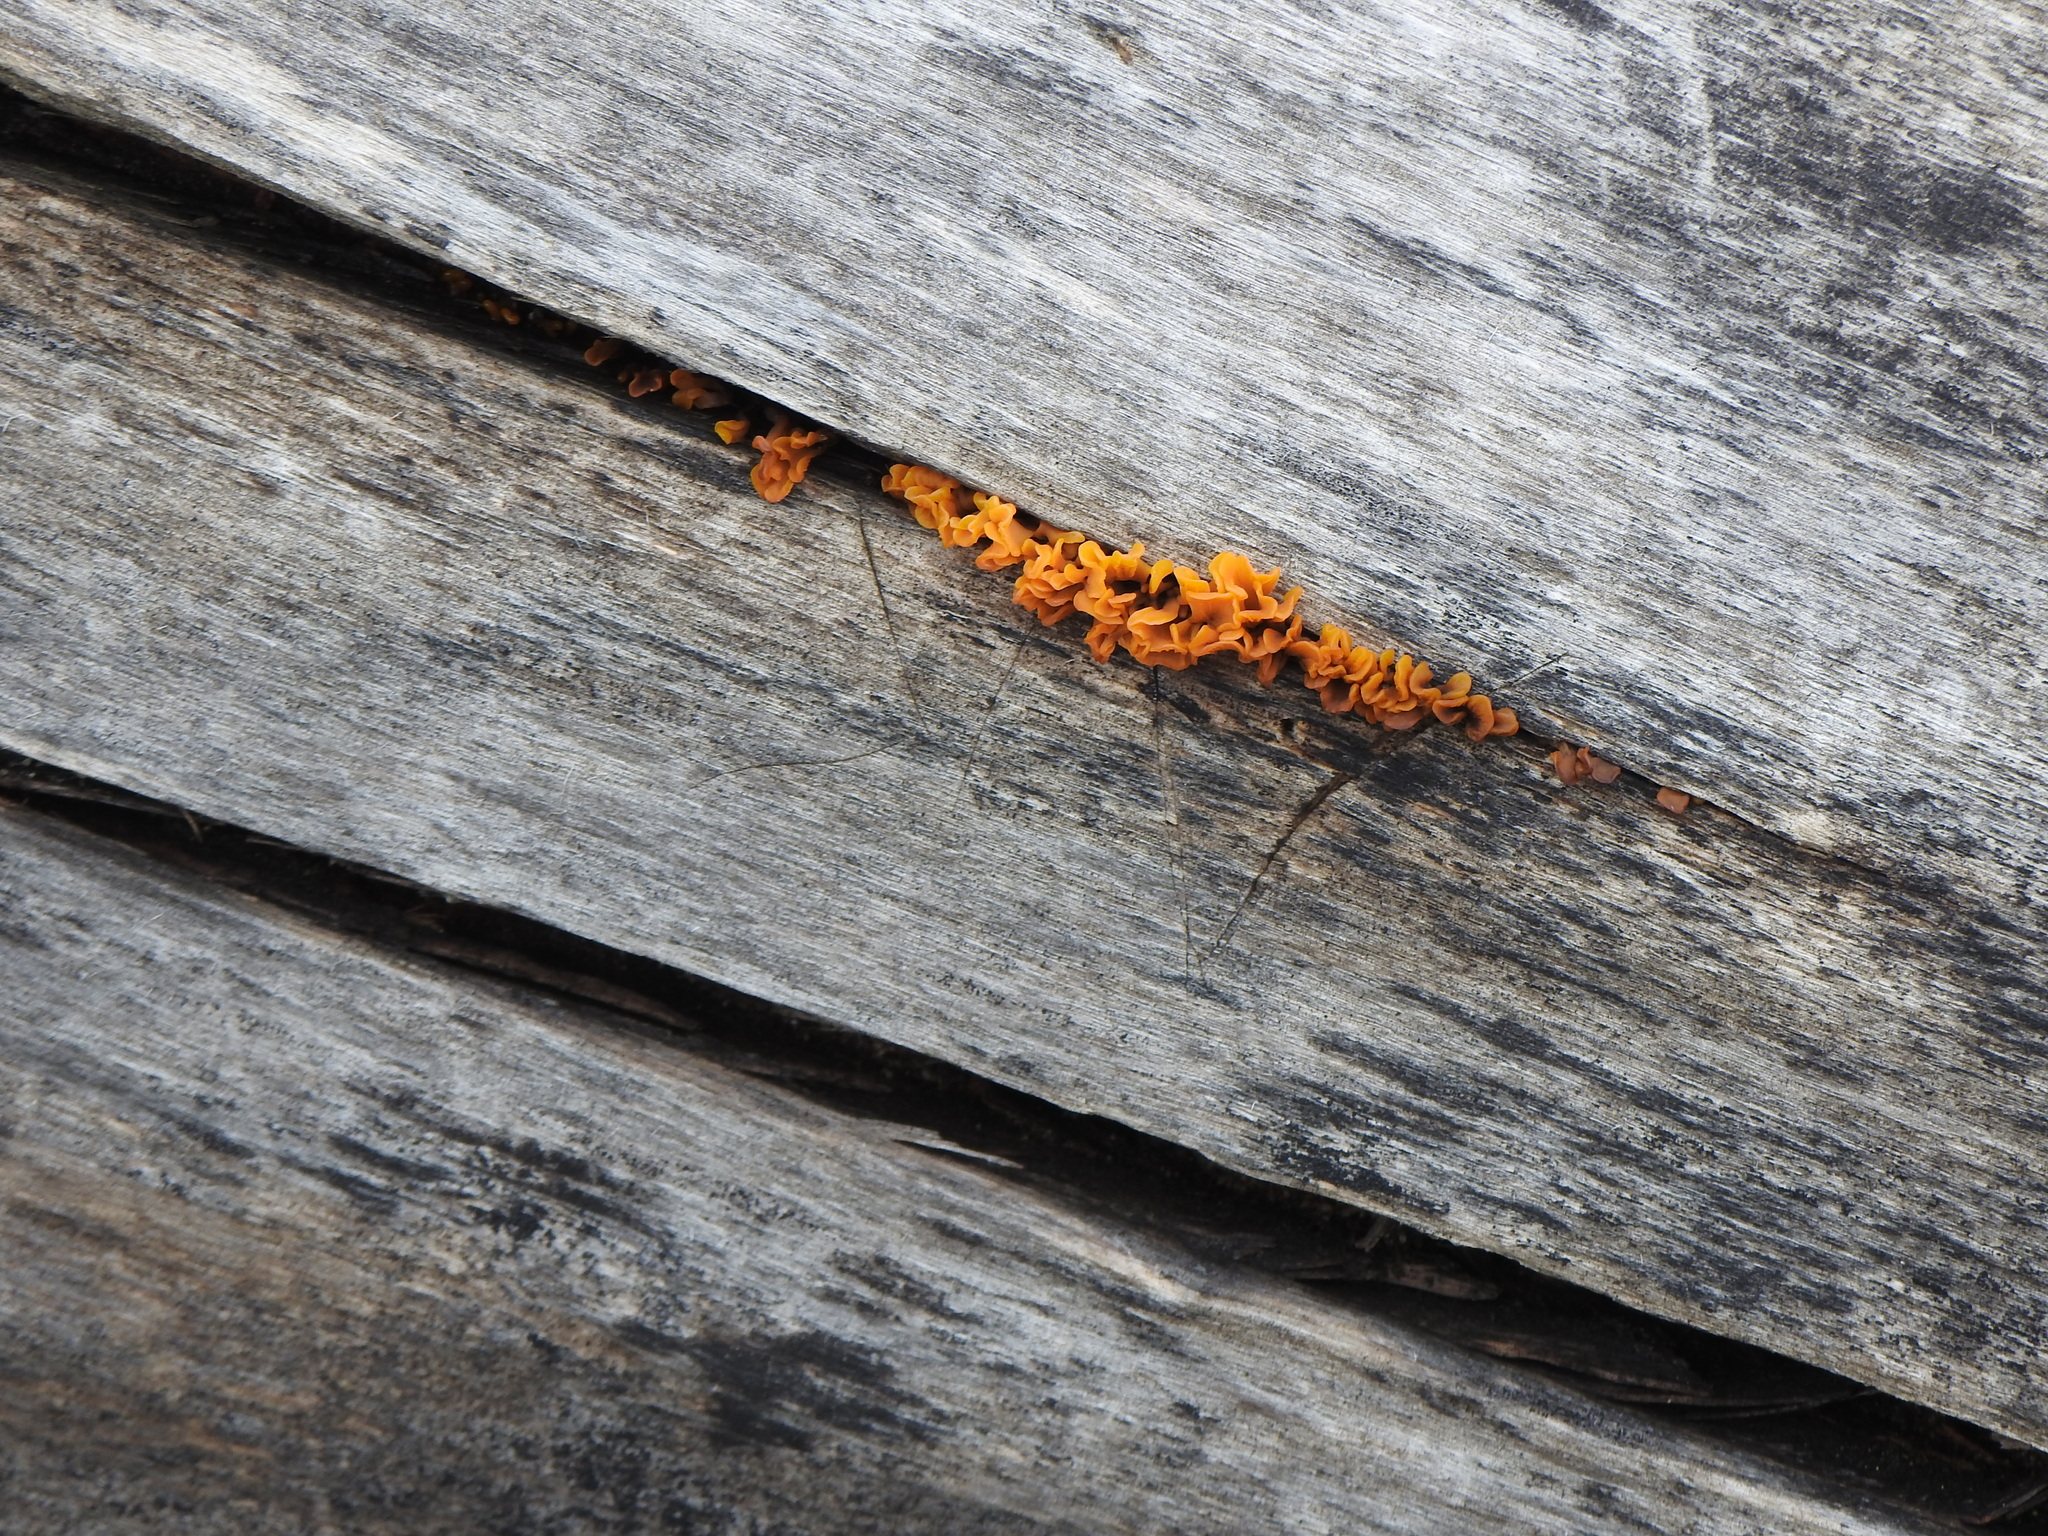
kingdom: Fungi
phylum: Basidiomycota
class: Dacrymycetes
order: Dacrymycetales
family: Dacrymycetaceae
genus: Dacrymyces
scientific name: Dacrymyces spathularius
